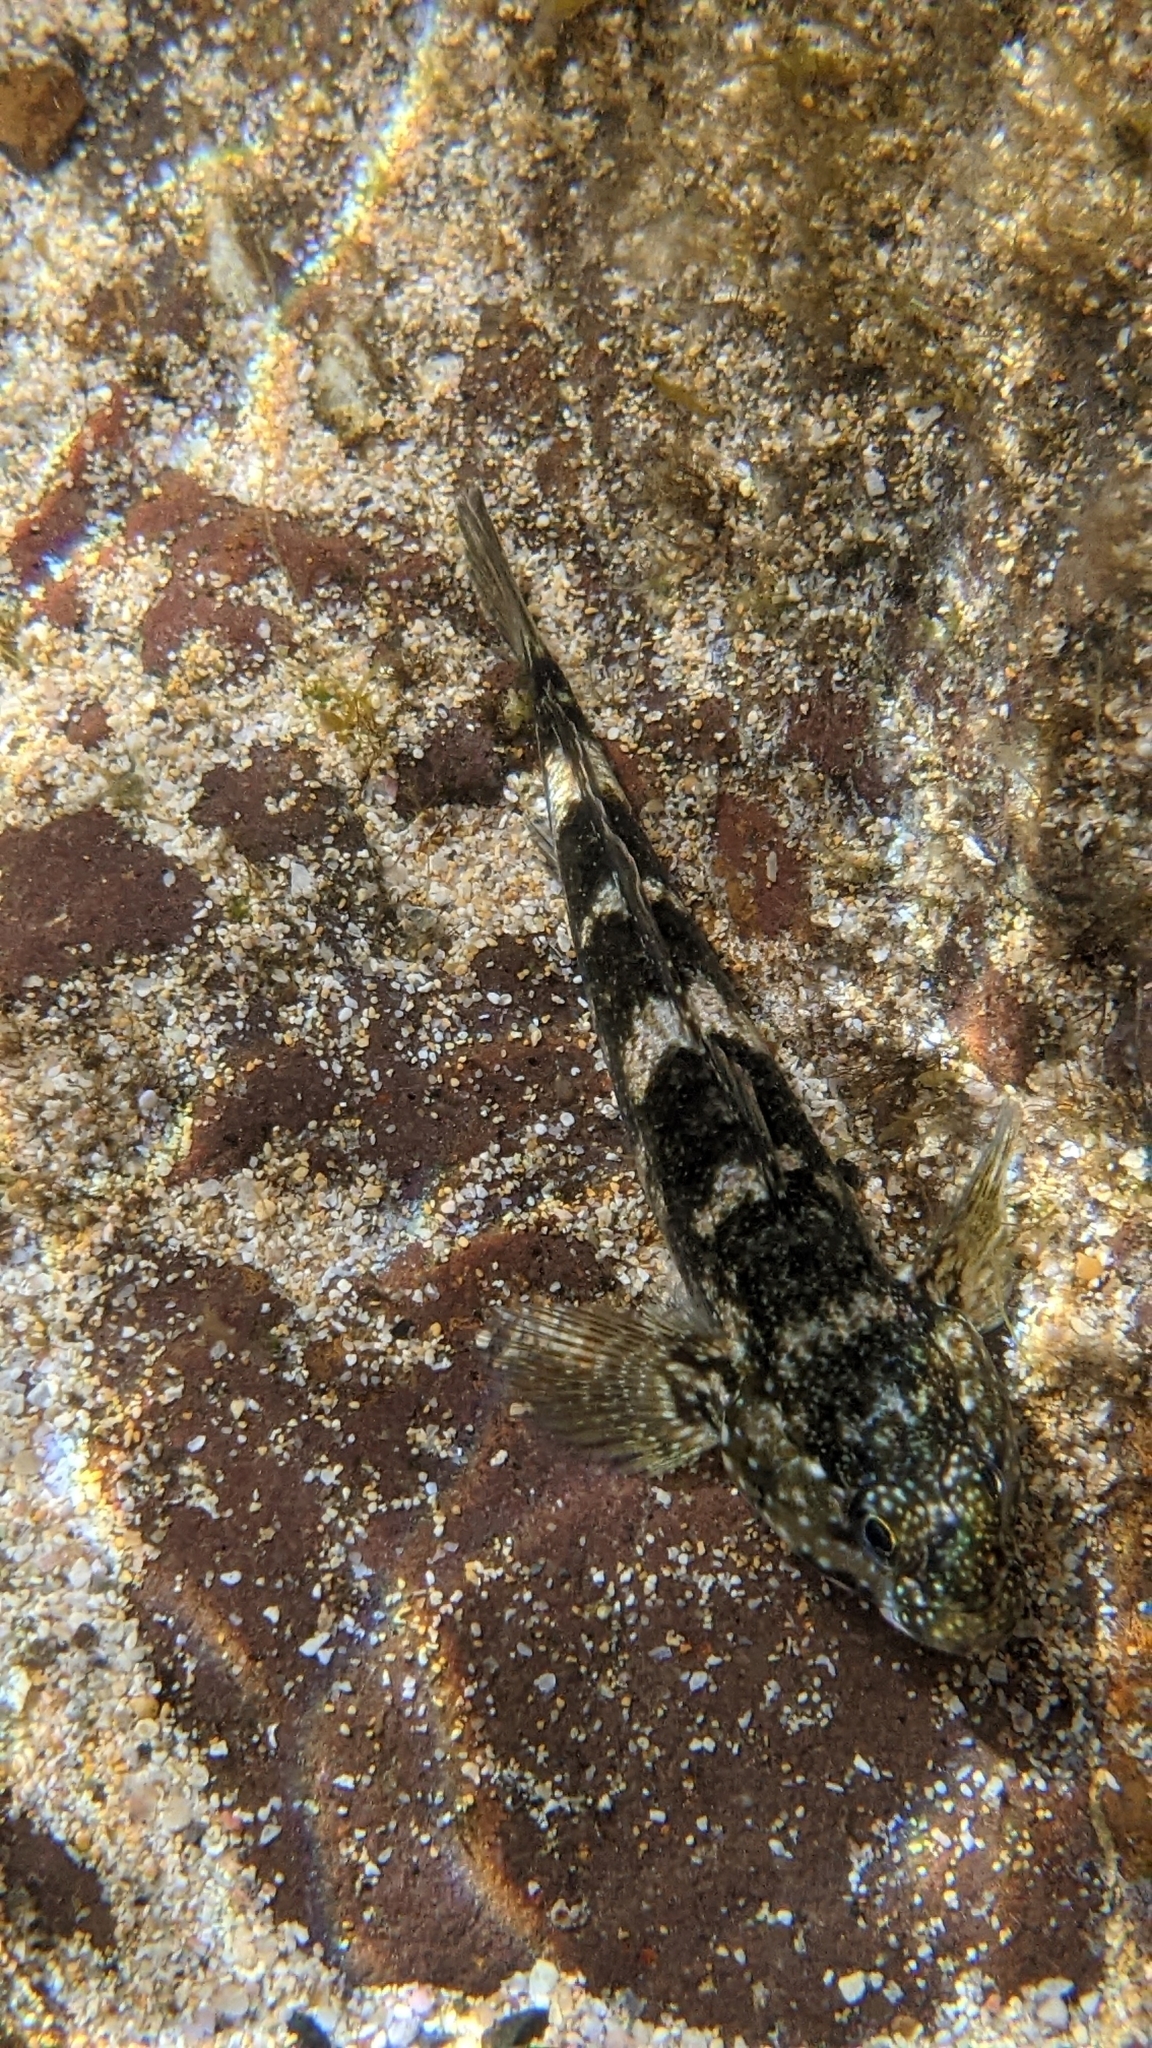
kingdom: Animalia
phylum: Chordata
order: Perciformes
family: Gobiidae
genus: Mauligobius
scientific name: Mauligobius maderensis
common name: Rock goby
